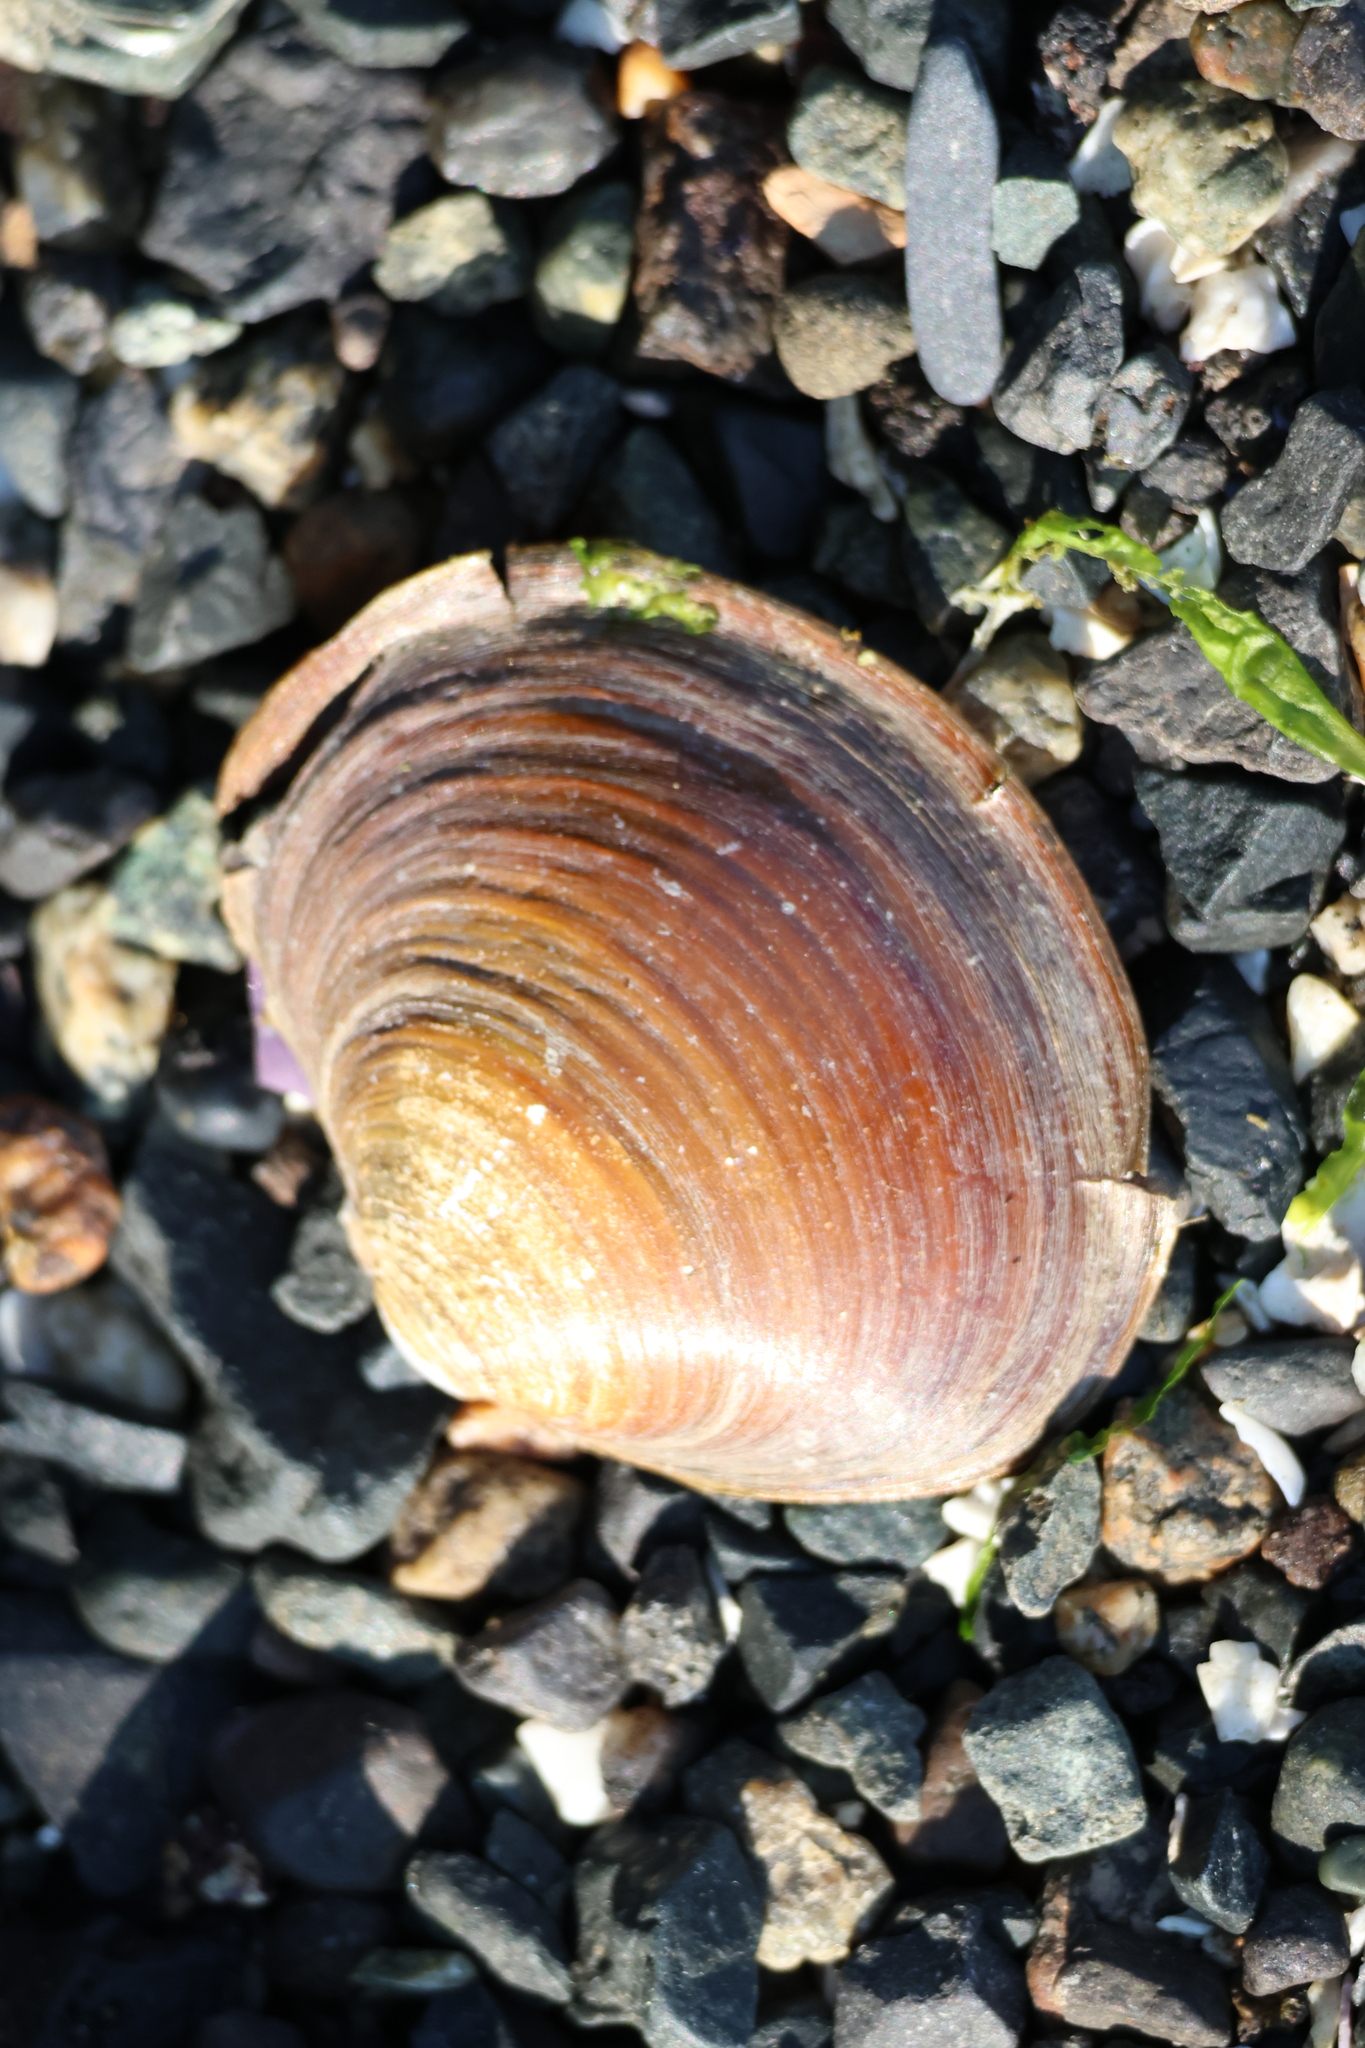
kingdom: Animalia
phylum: Mollusca
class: Bivalvia
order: Cardiida
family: Psammobiidae
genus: Nuttallia
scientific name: Nuttallia obscurata
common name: Purple mahogany-clam
